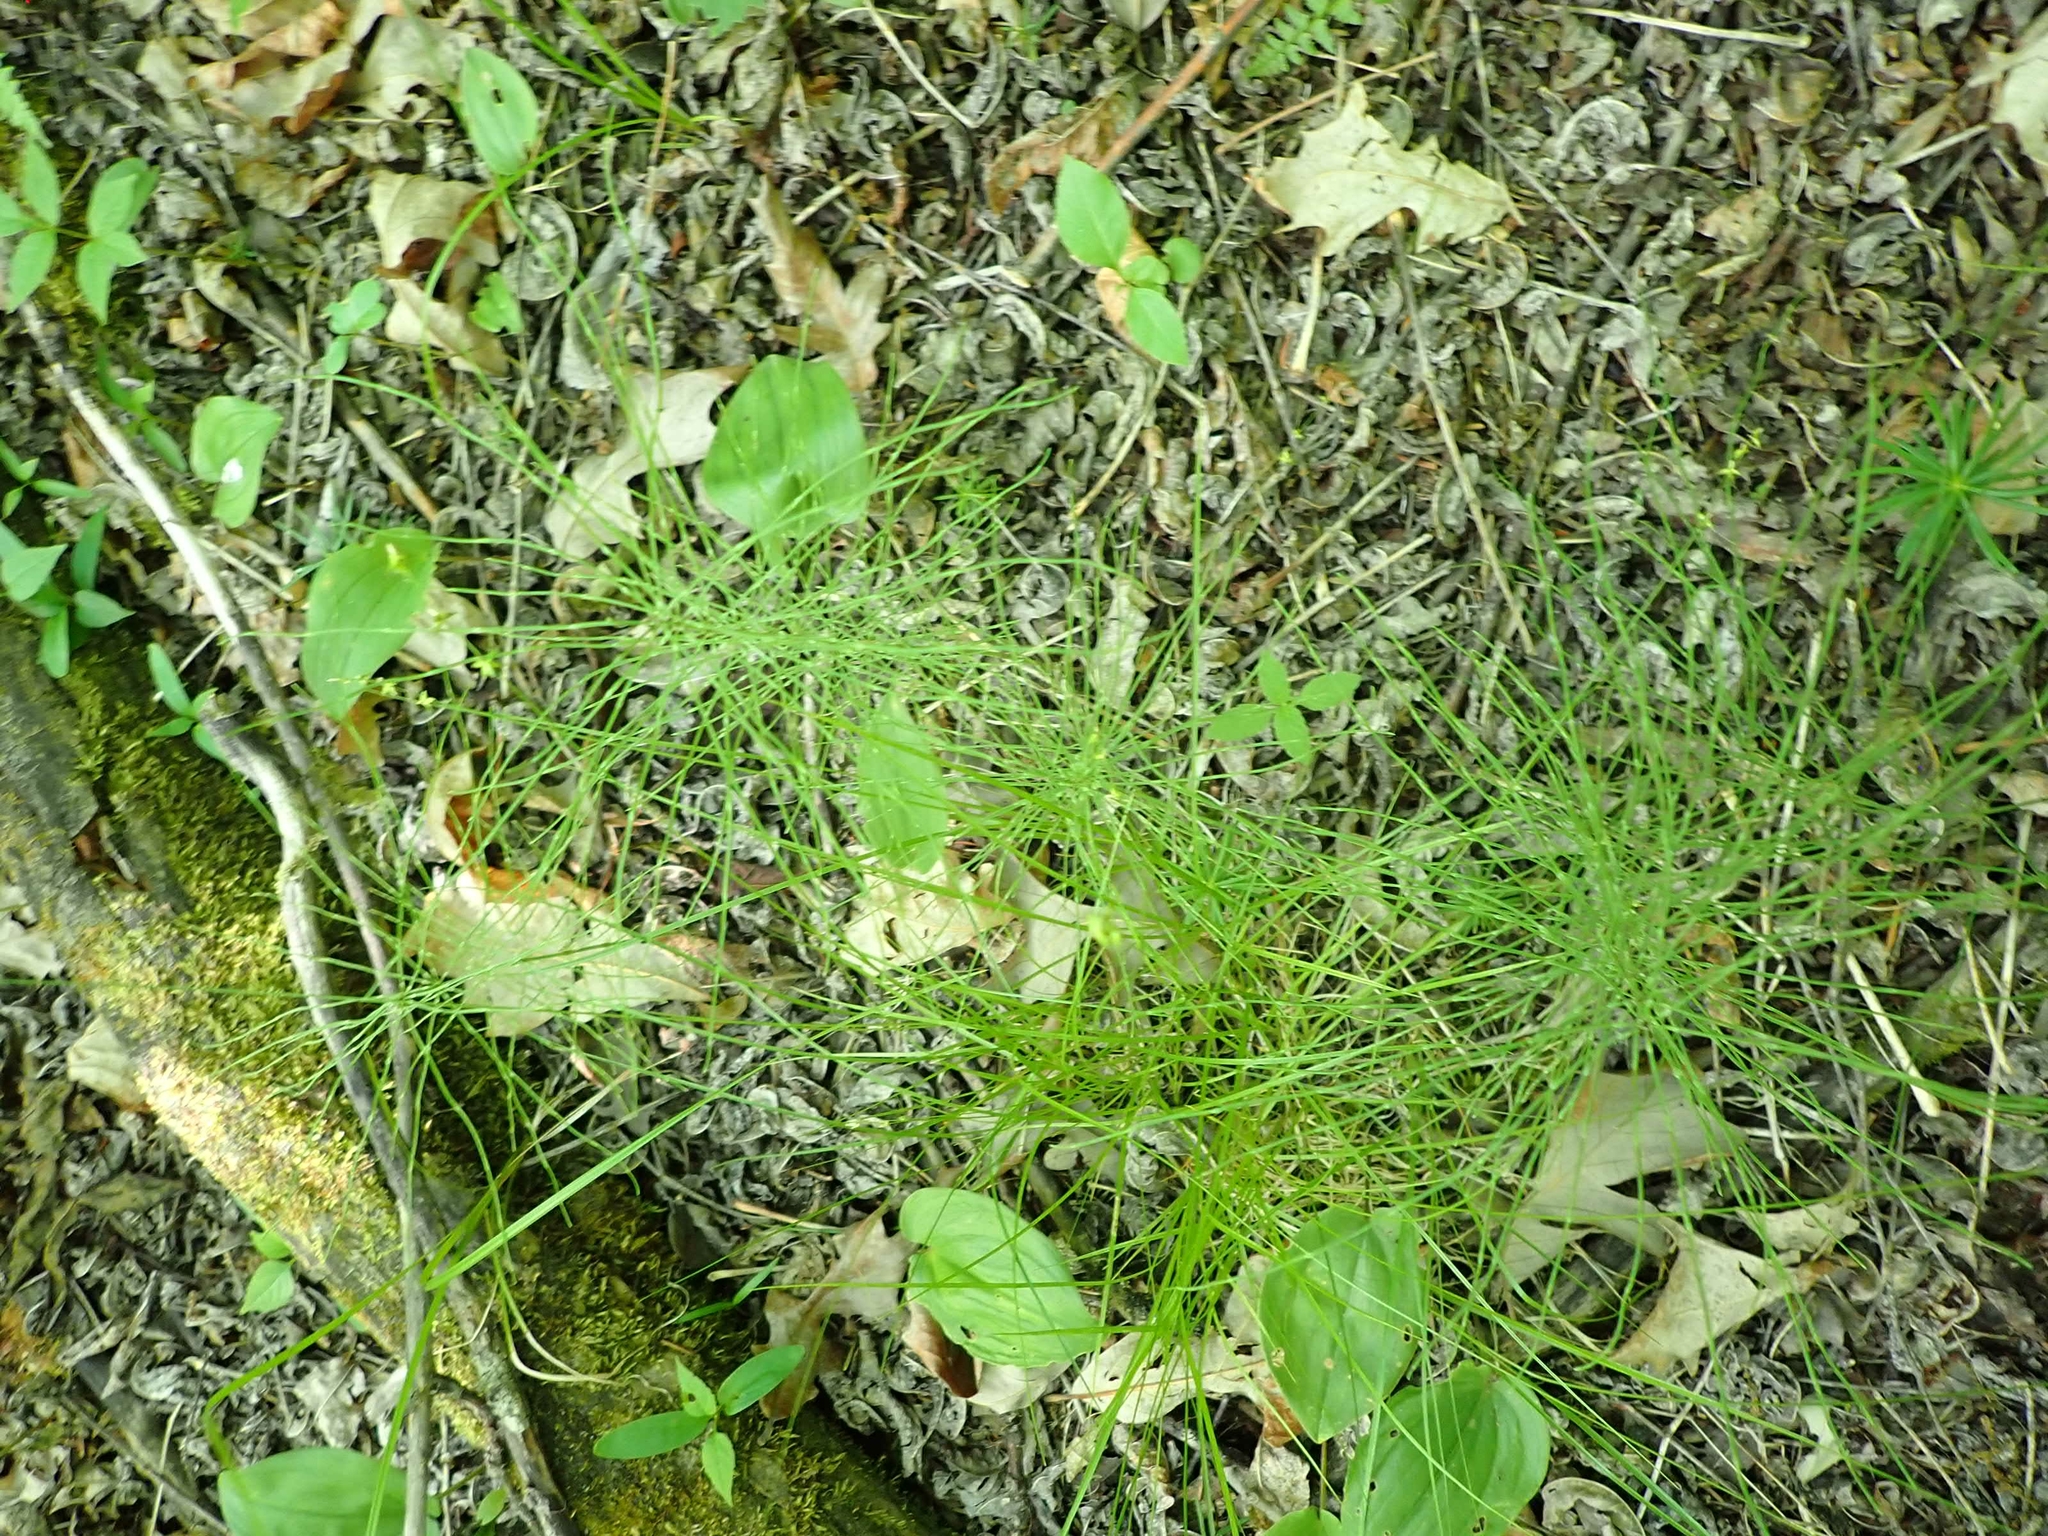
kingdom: Plantae
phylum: Tracheophyta
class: Polypodiopsida
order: Equisetales
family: Equisetaceae
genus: Equisetum
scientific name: Equisetum pratense
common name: Meadow horsetail
